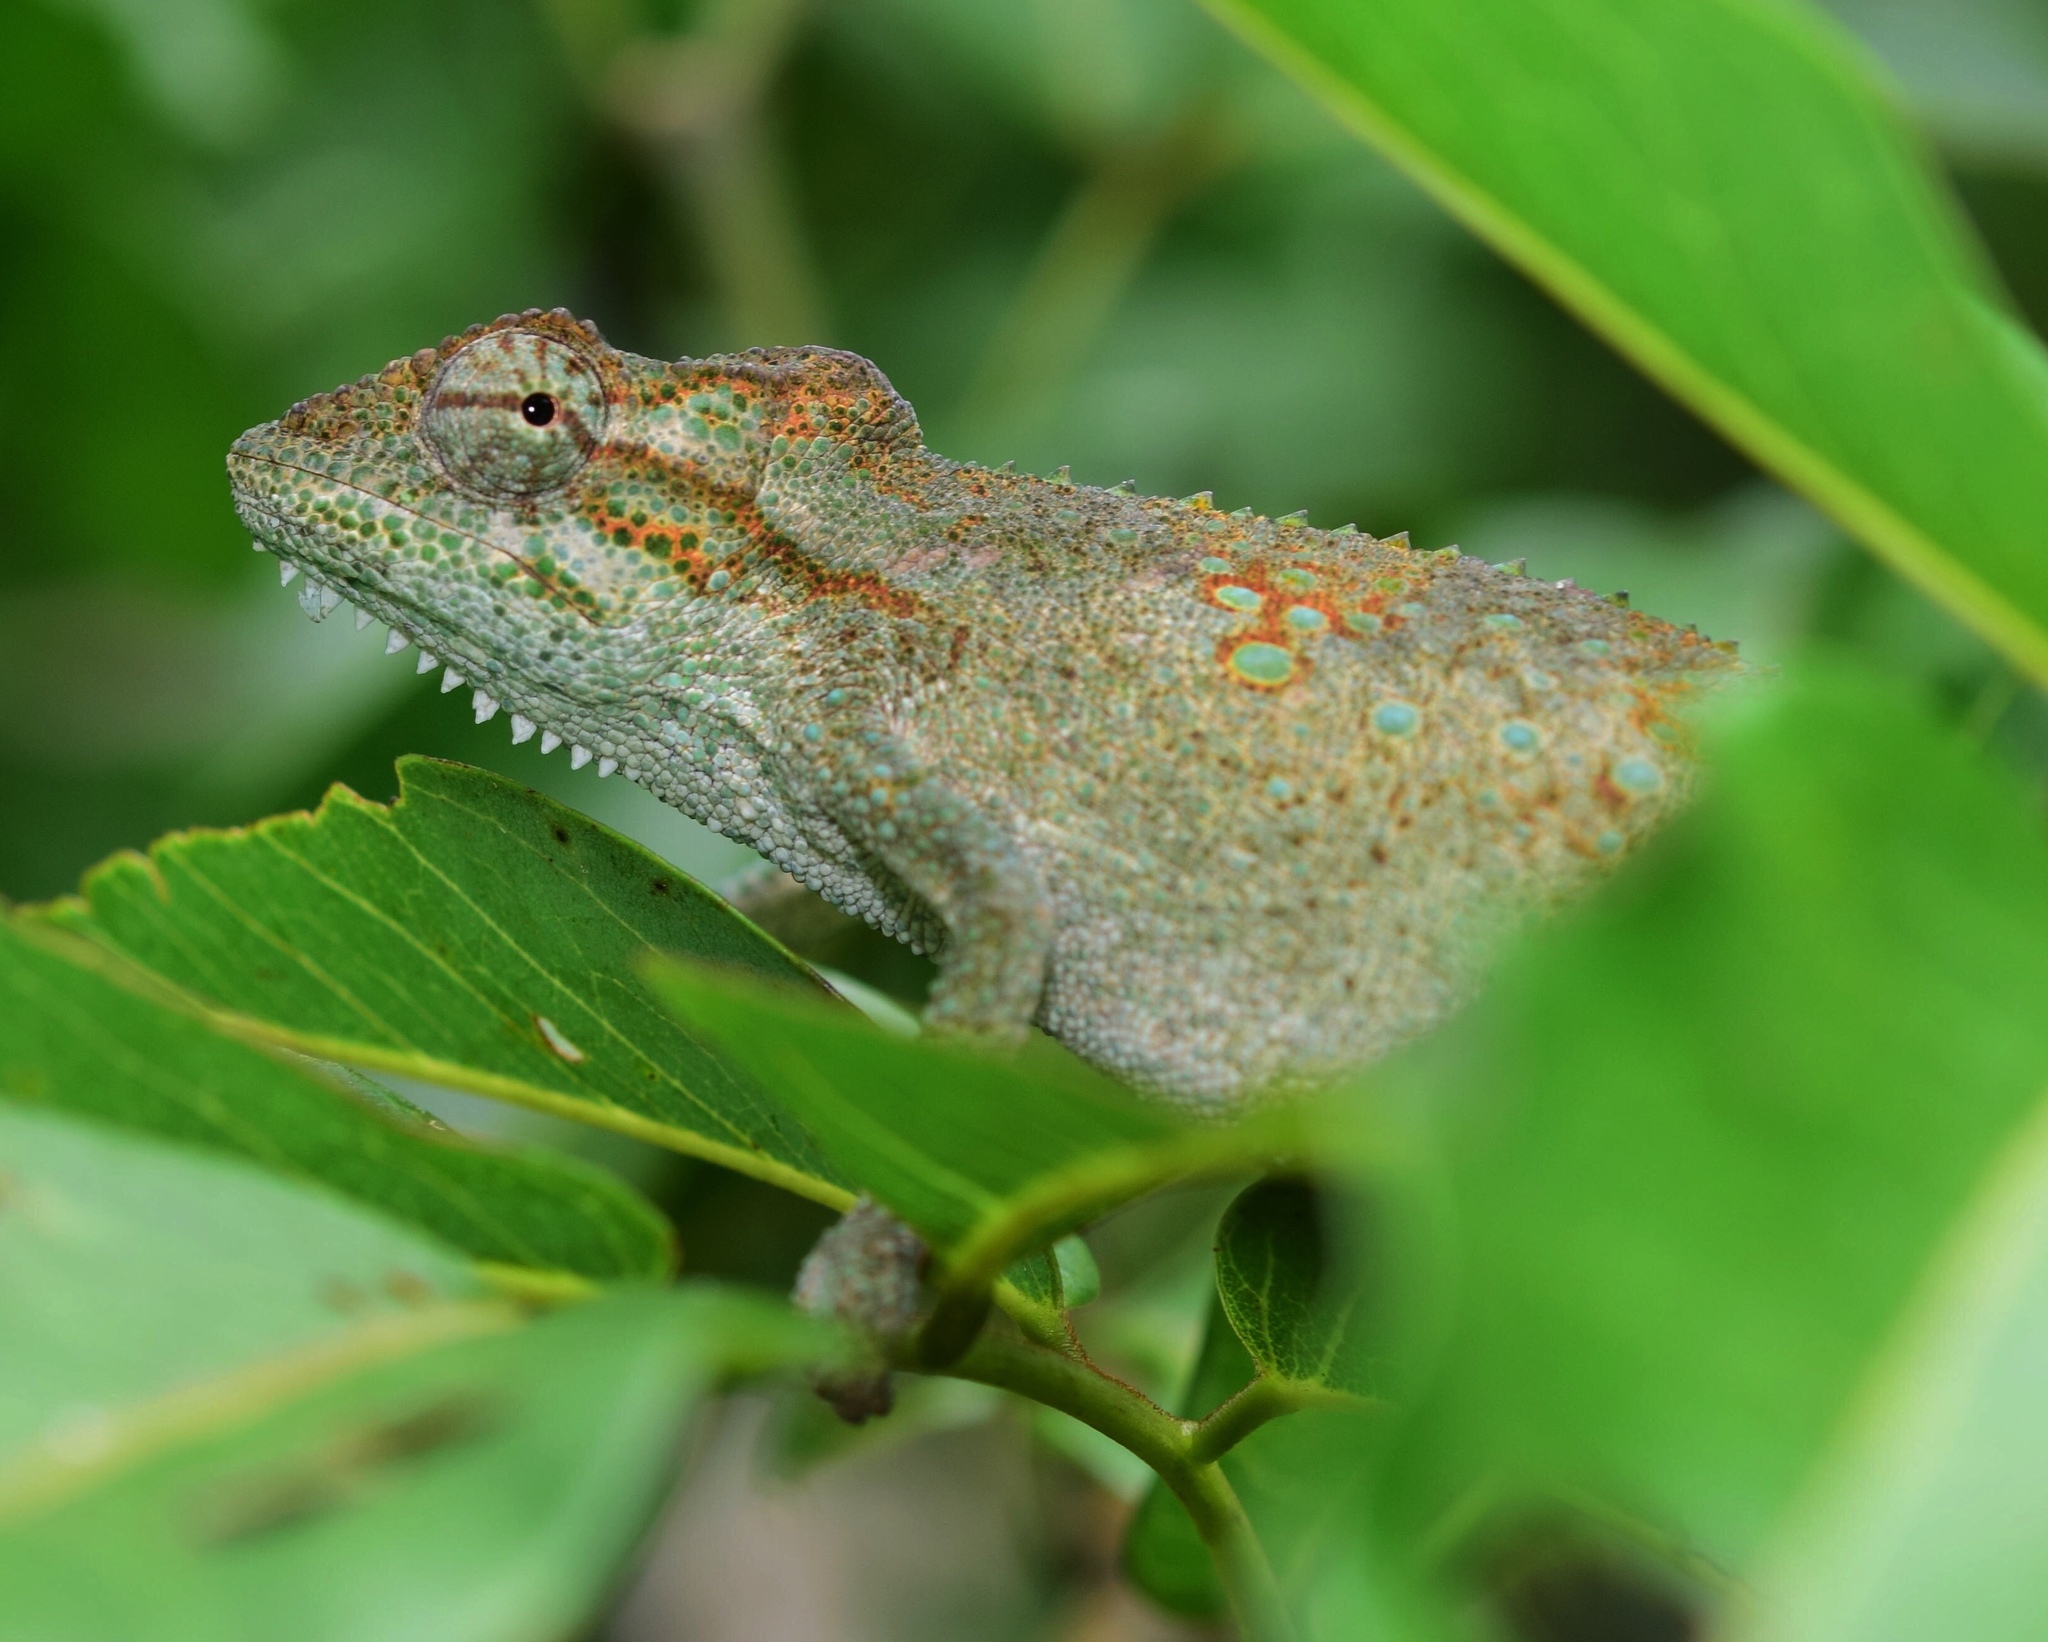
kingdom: Animalia
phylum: Chordata
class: Squamata
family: Chamaeleonidae
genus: Bradypodion
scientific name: Bradypodion melanocephalum
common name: Black-headed dwarf chameleon
